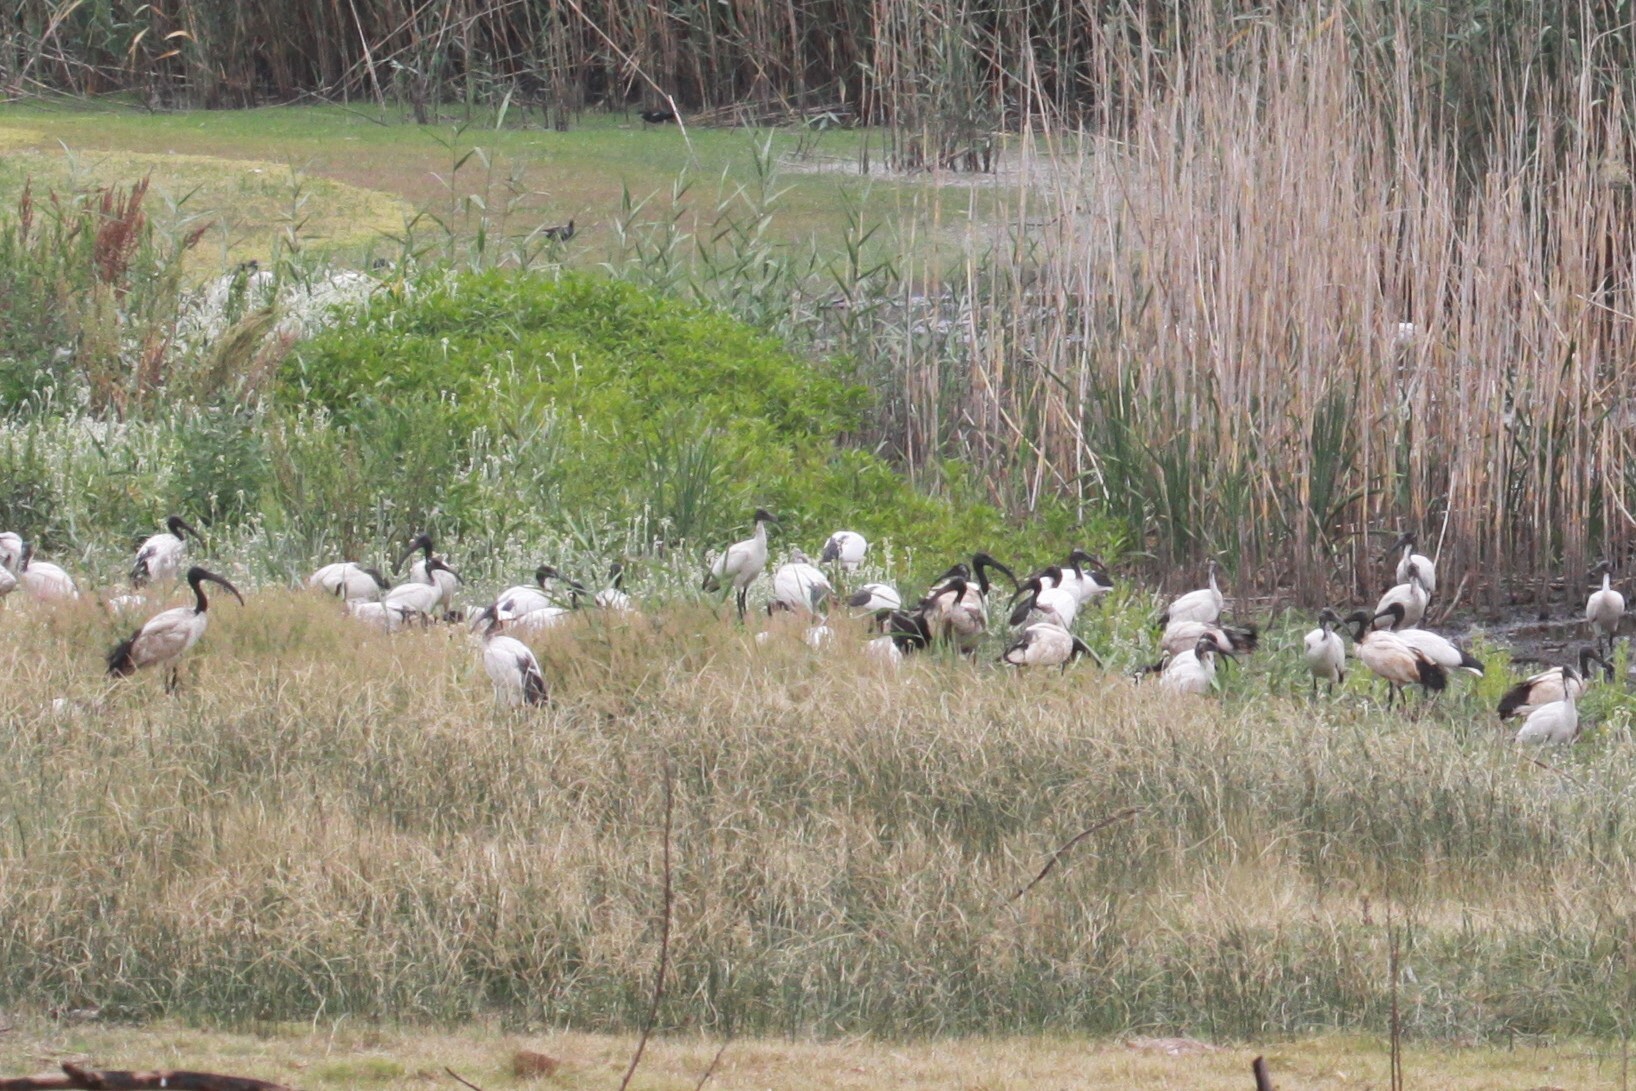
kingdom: Animalia
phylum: Chordata
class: Aves
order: Pelecaniformes
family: Threskiornithidae
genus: Threskiornis
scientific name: Threskiornis aethiopicus
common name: Sacred ibis
